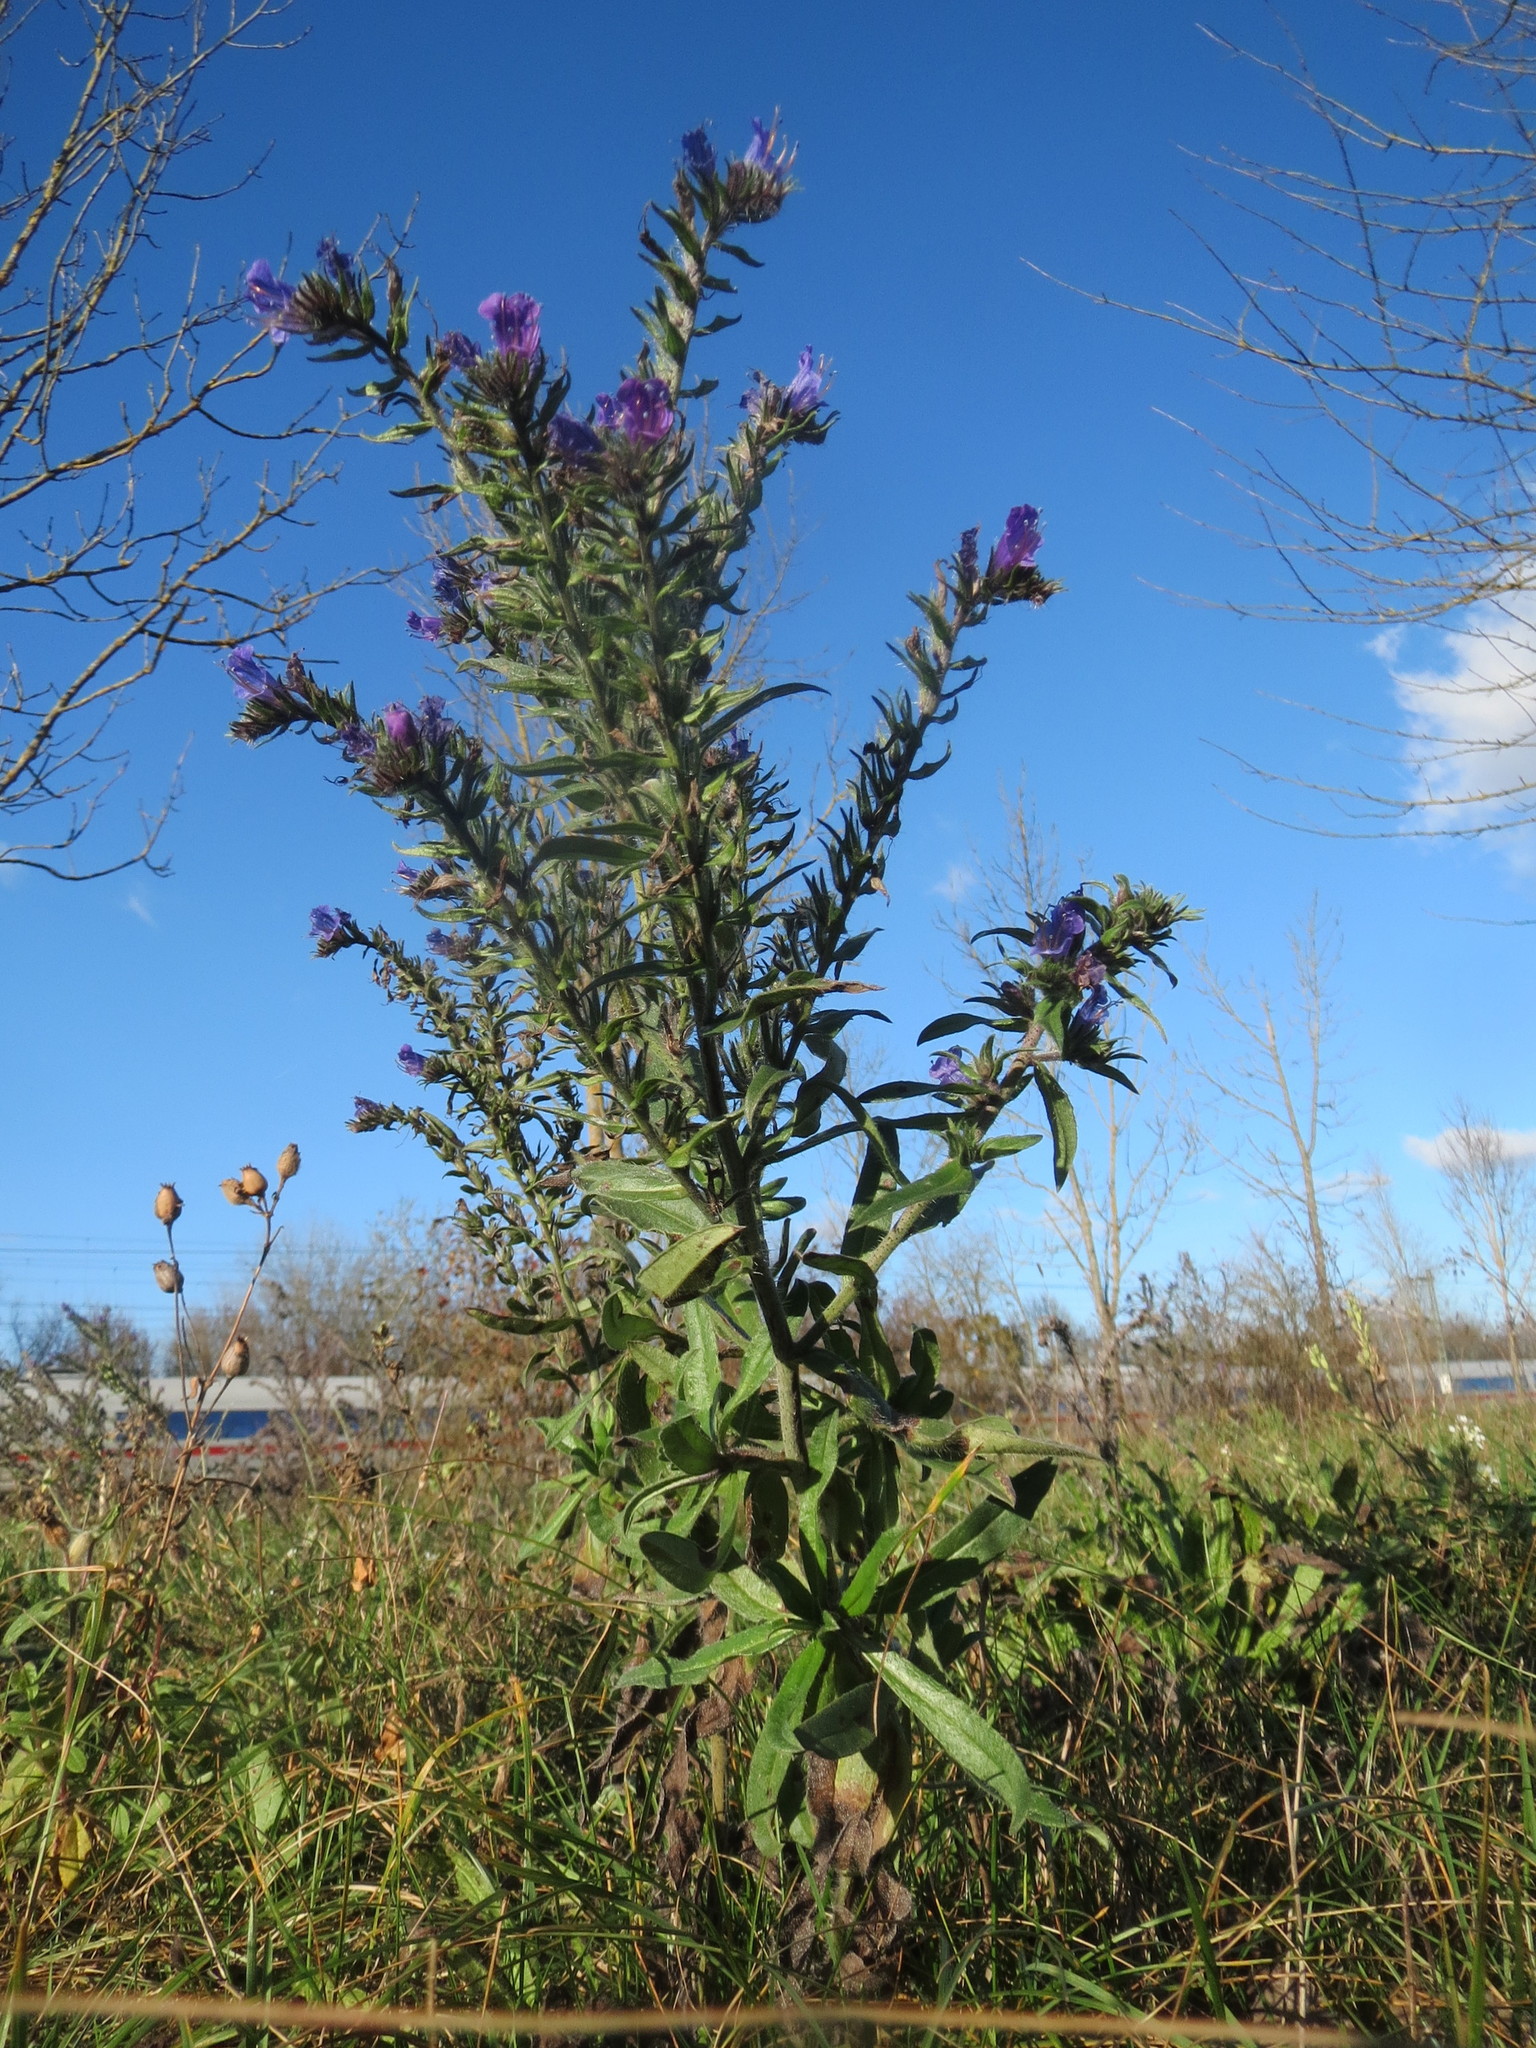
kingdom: Plantae
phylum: Tracheophyta
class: Magnoliopsida
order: Boraginales
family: Boraginaceae
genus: Echium
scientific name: Echium vulgare
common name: Common viper's bugloss
